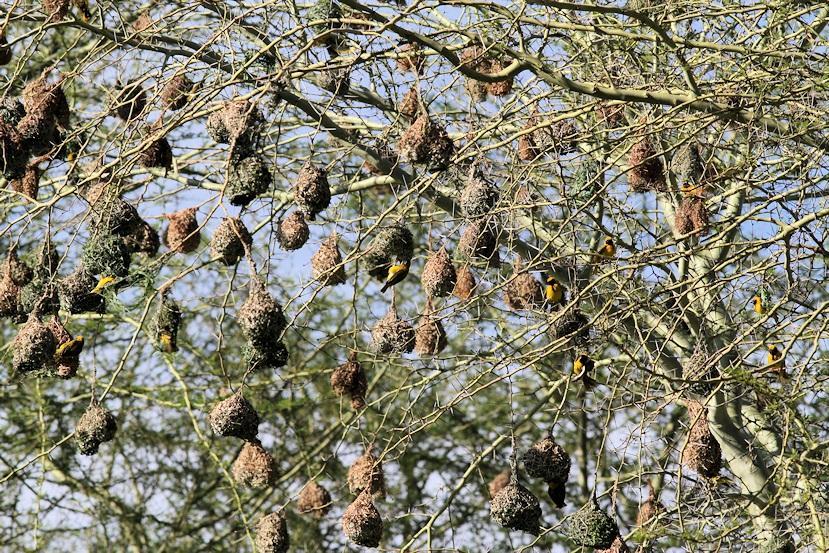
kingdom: Plantae
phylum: Tracheophyta
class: Magnoliopsida
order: Fabales
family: Fabaceae
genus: Vachellia
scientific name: Vachellia xanthophloea
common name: Fever tree
